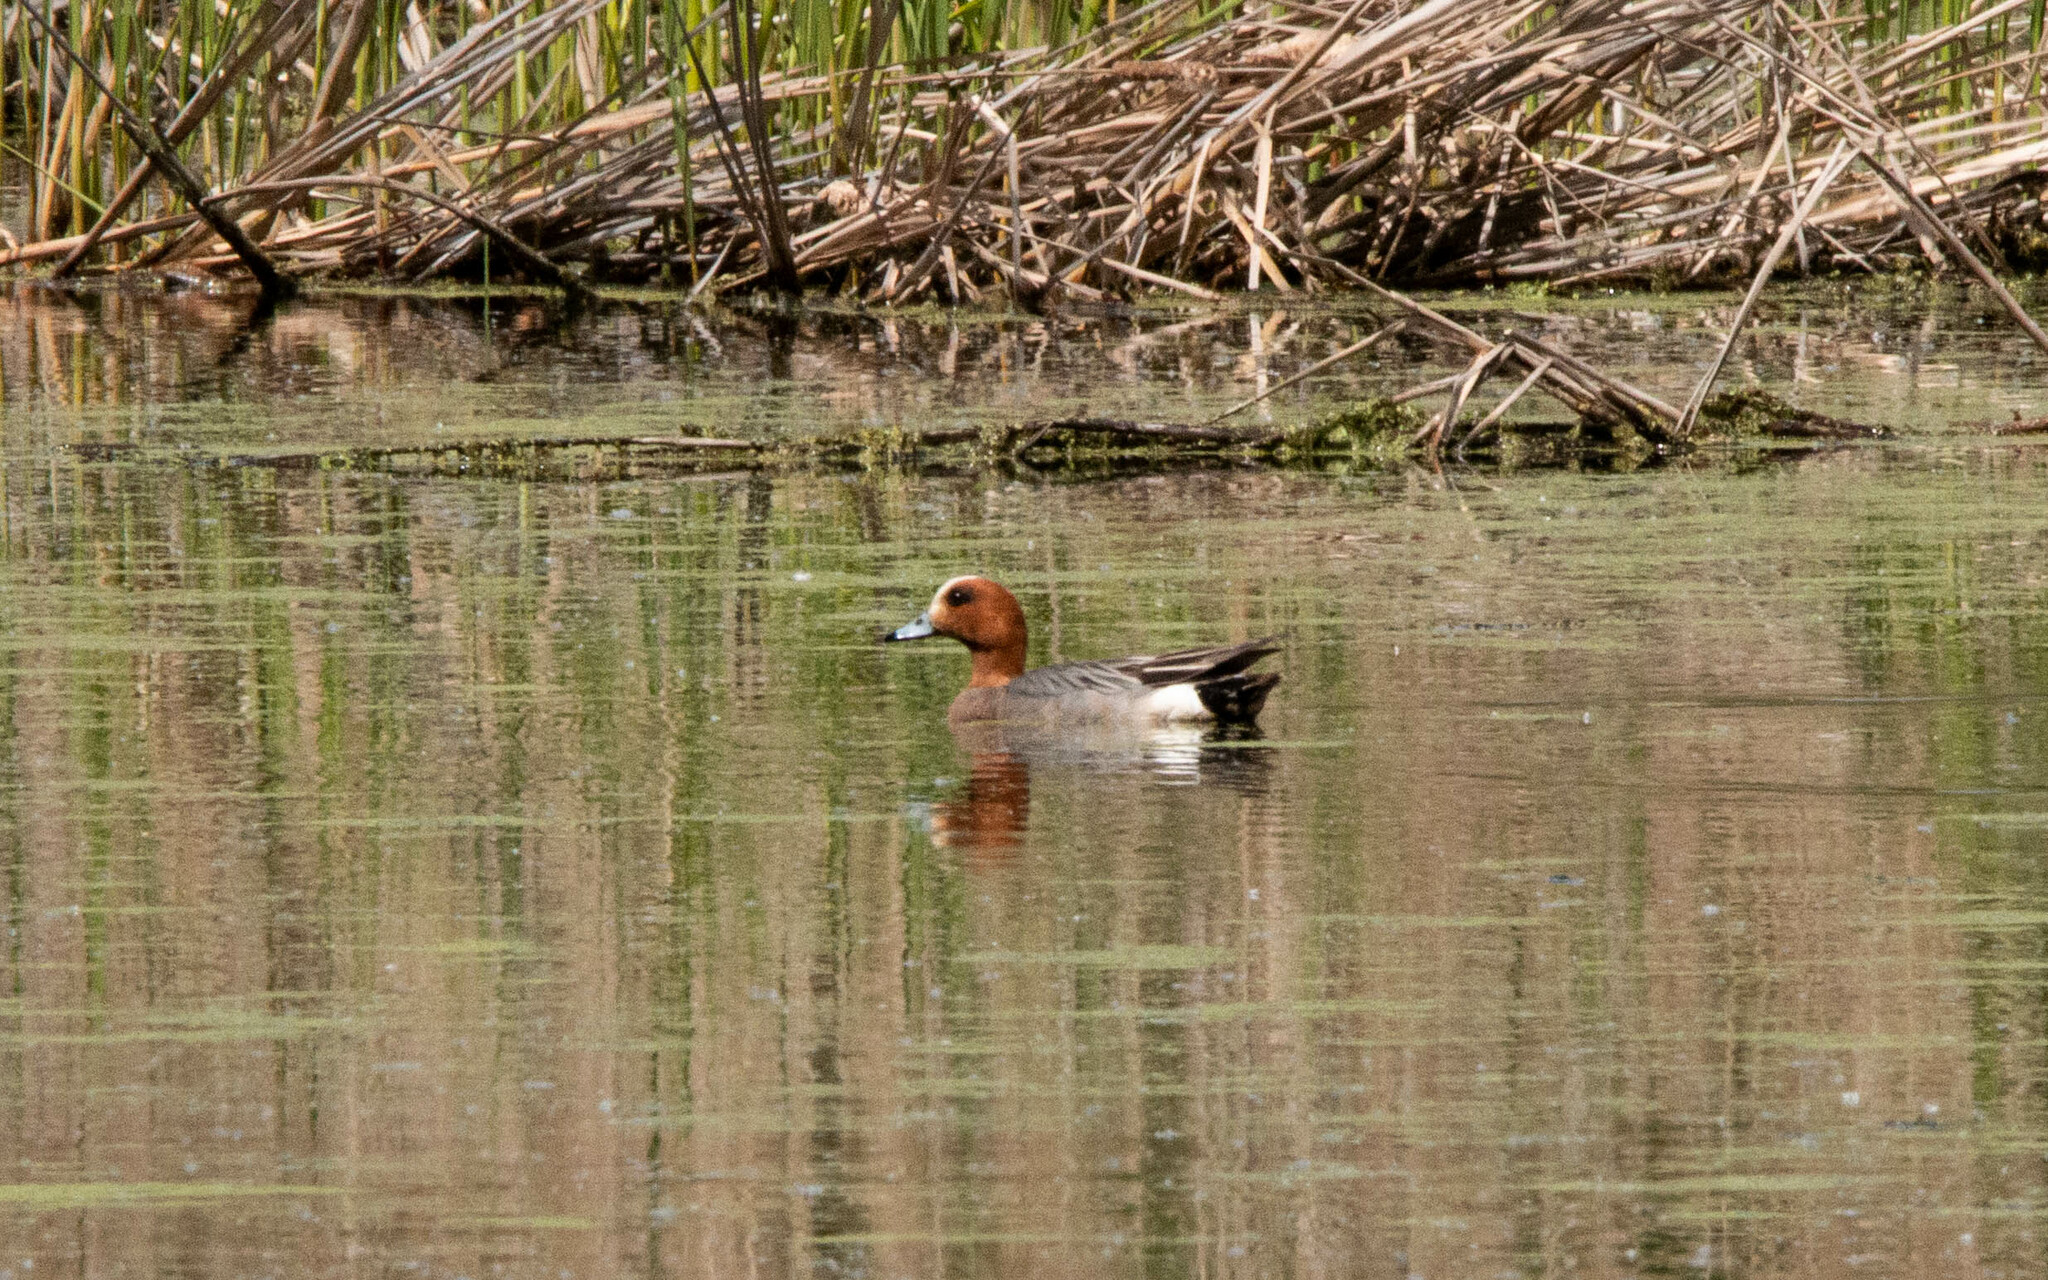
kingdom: Animalia
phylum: Chordata
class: Aves
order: Anseriformes
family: Anatidae
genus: Mareca
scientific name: Mareca penelope
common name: Eurasian wigeon
